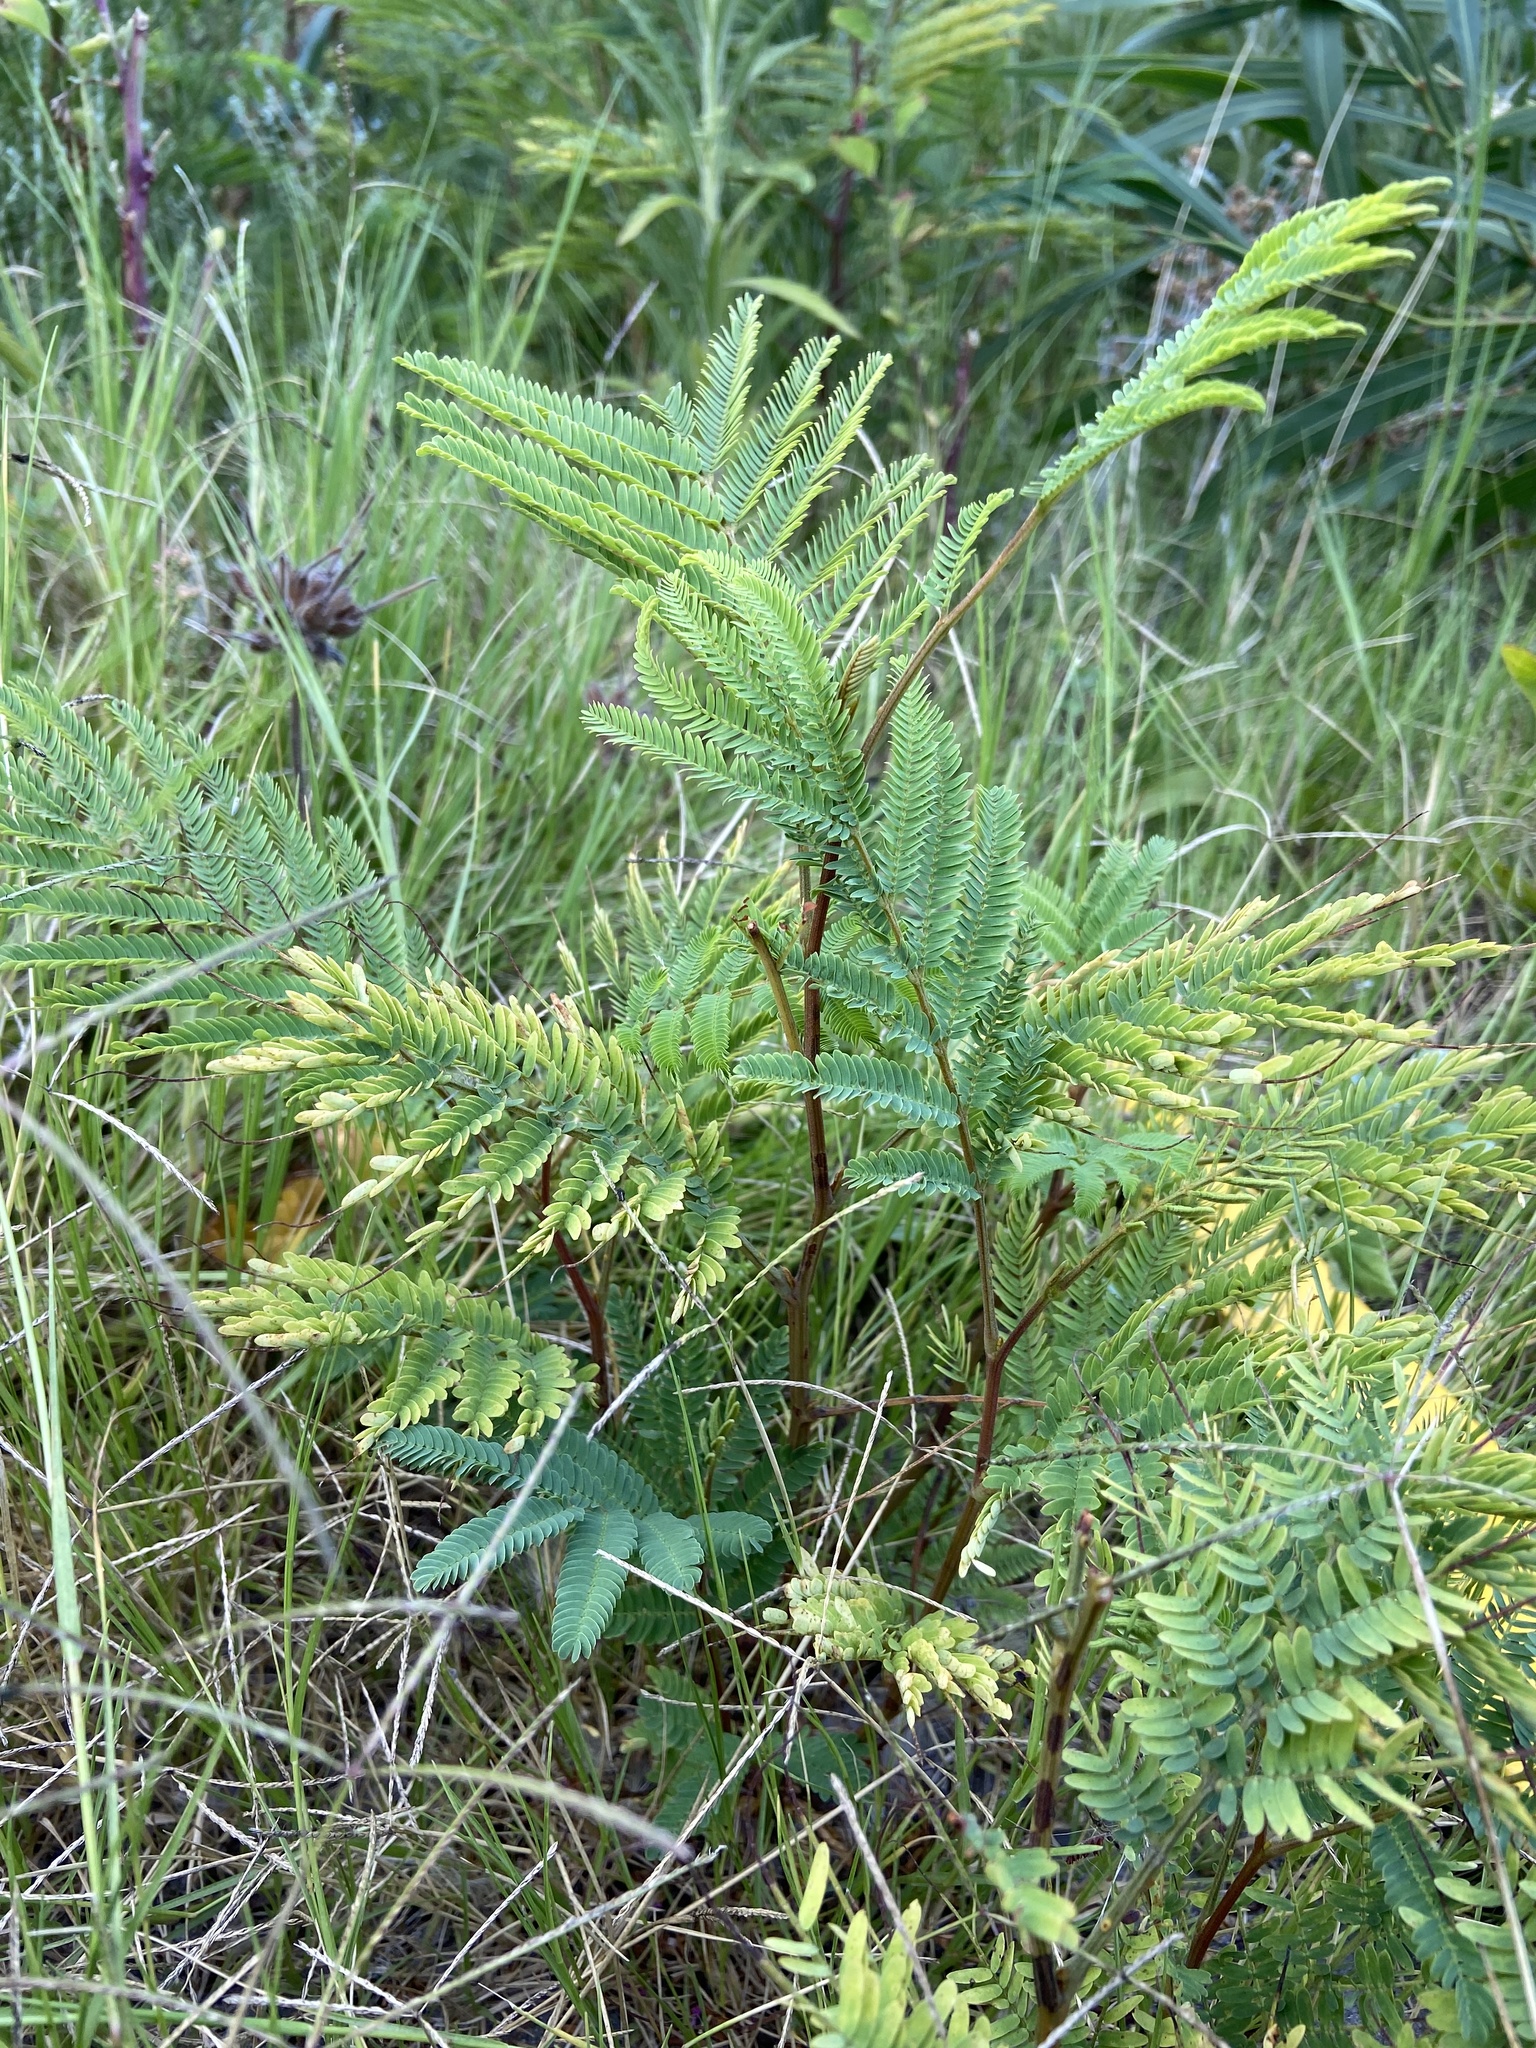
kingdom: Plantae
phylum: Tracheophyta
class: Magnoliopsida
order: Fabales
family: Fabaceae
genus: Paraserianthes
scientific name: Paraserianthes lophantha
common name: Plume albizia
